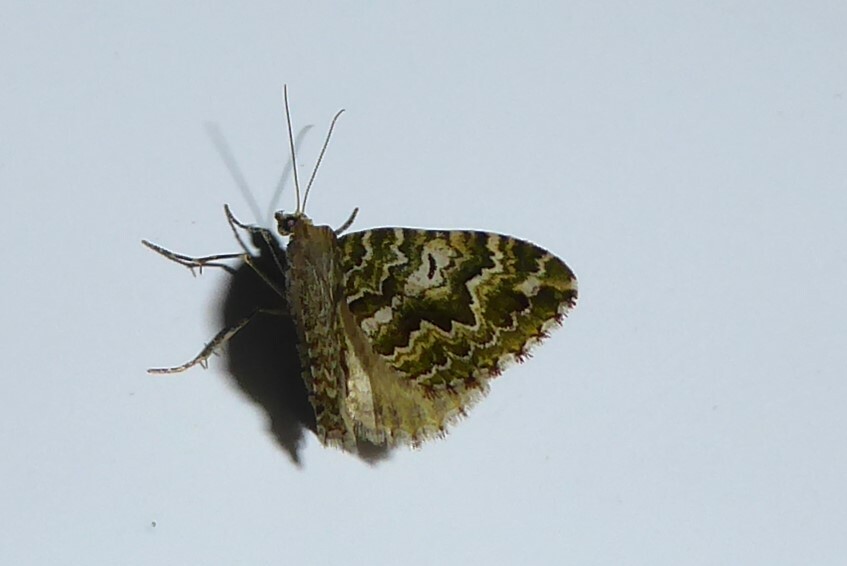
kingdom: Animalia
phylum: Arthropoda
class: Insecta
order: Lepidoptera
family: Geometridae
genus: Asaphodes
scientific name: Asaphodes beata
